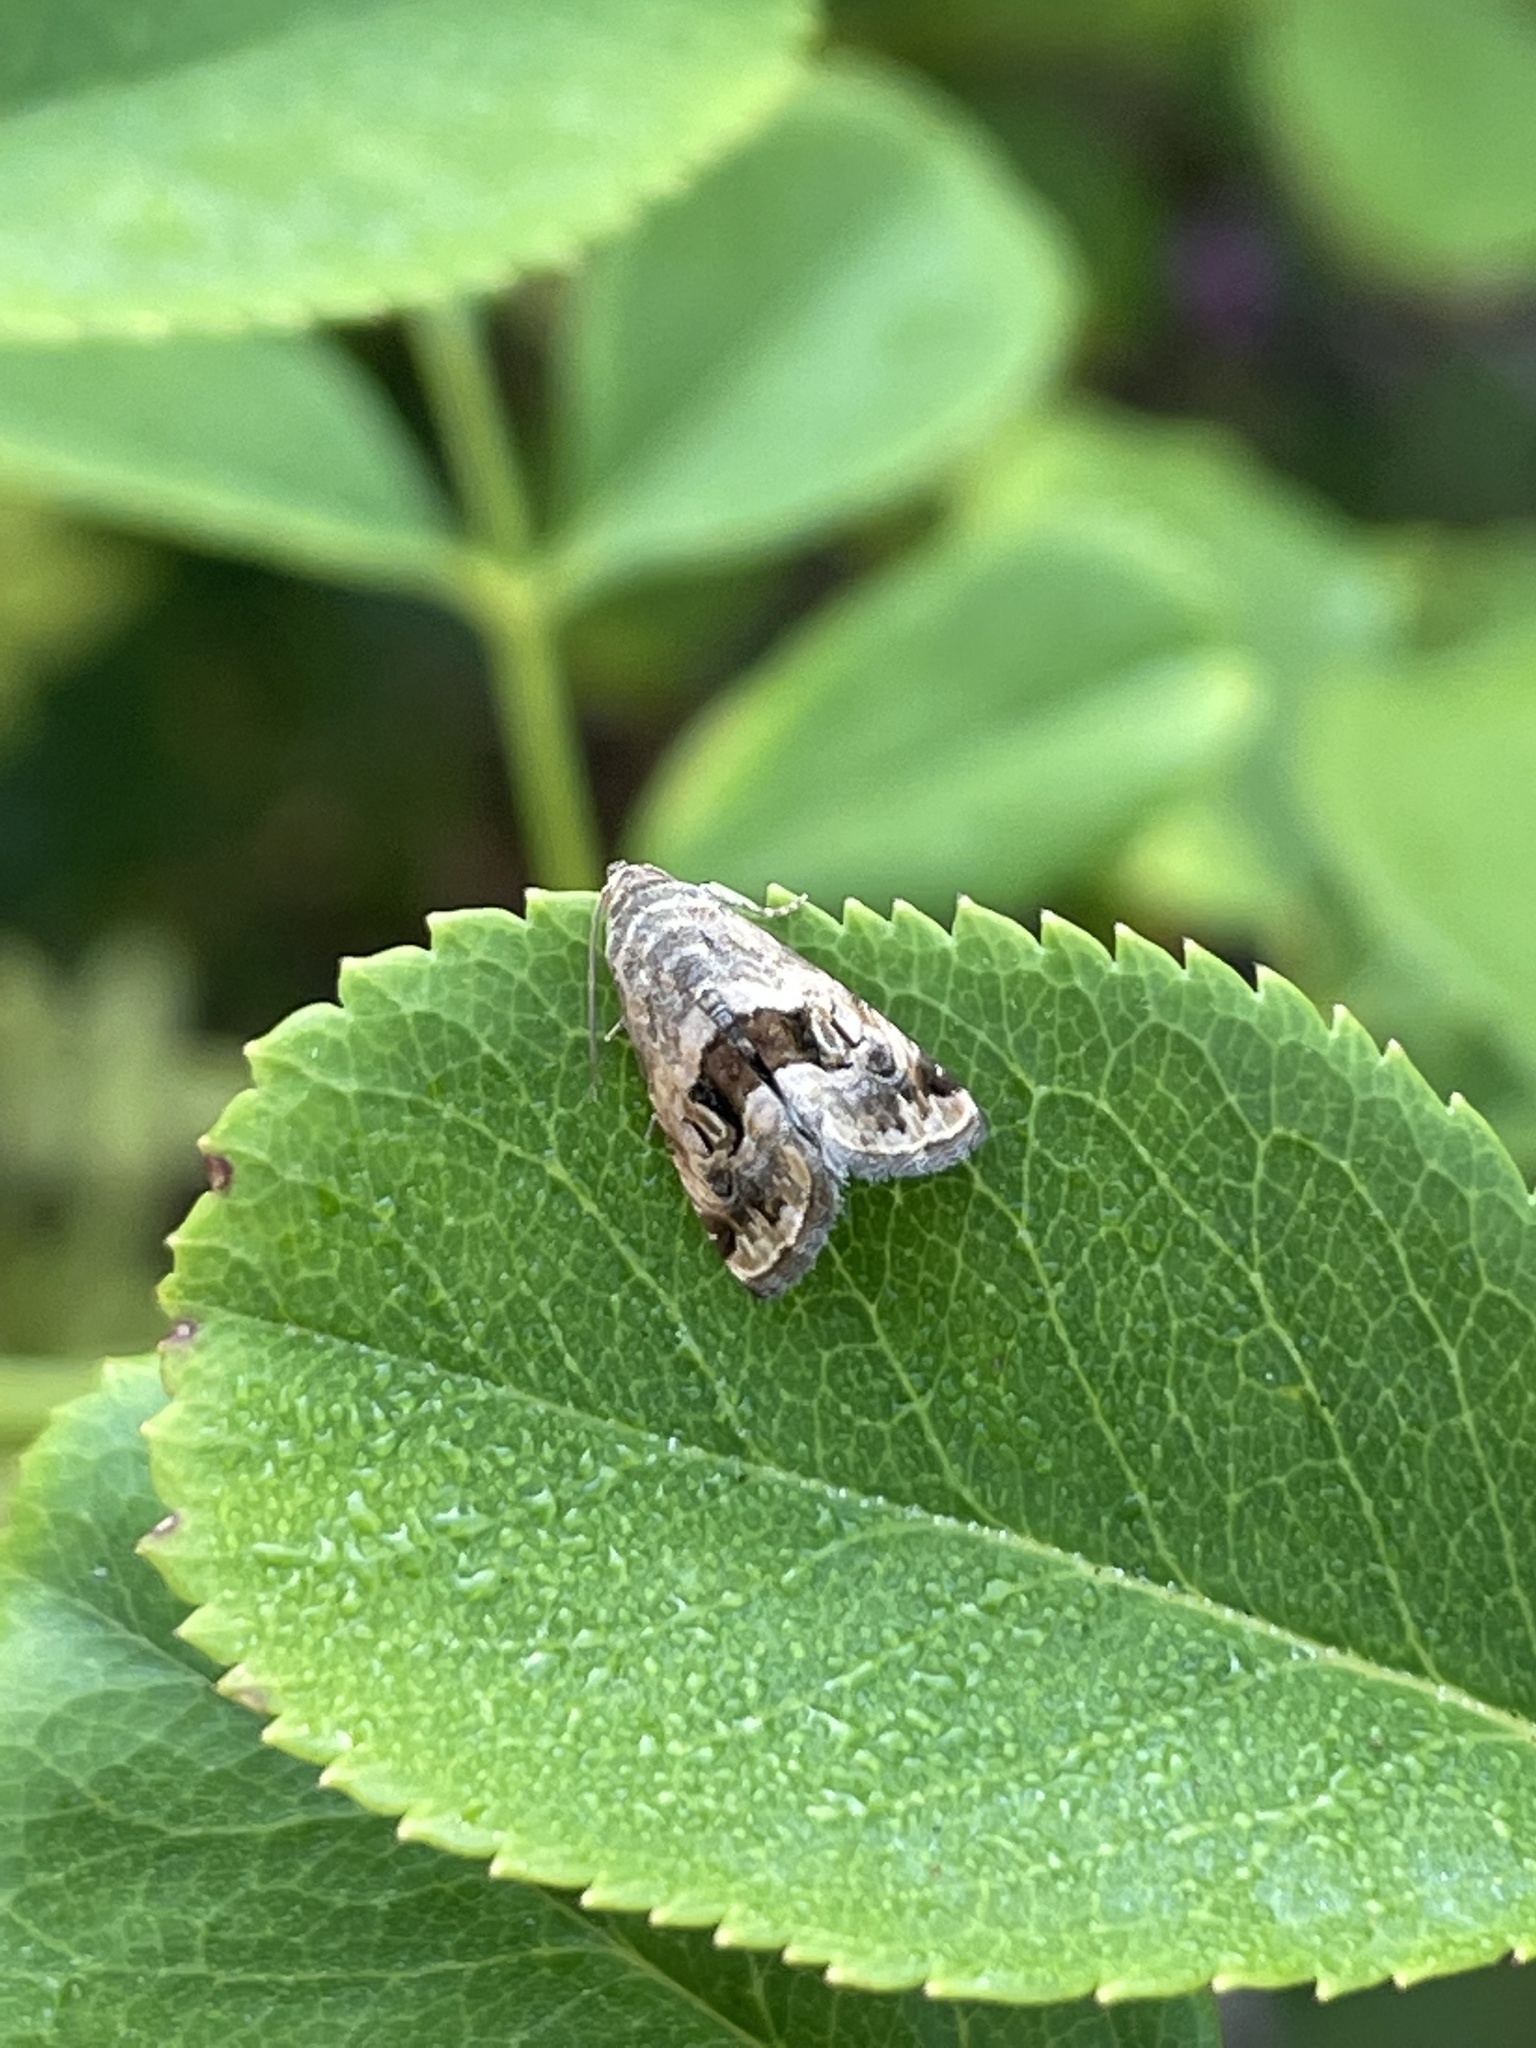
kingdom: Animalia
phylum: Arthropoda
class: Insecta
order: Lepidoptera
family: Noctuidae
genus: Tripudia
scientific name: Tripudia quadrifera
